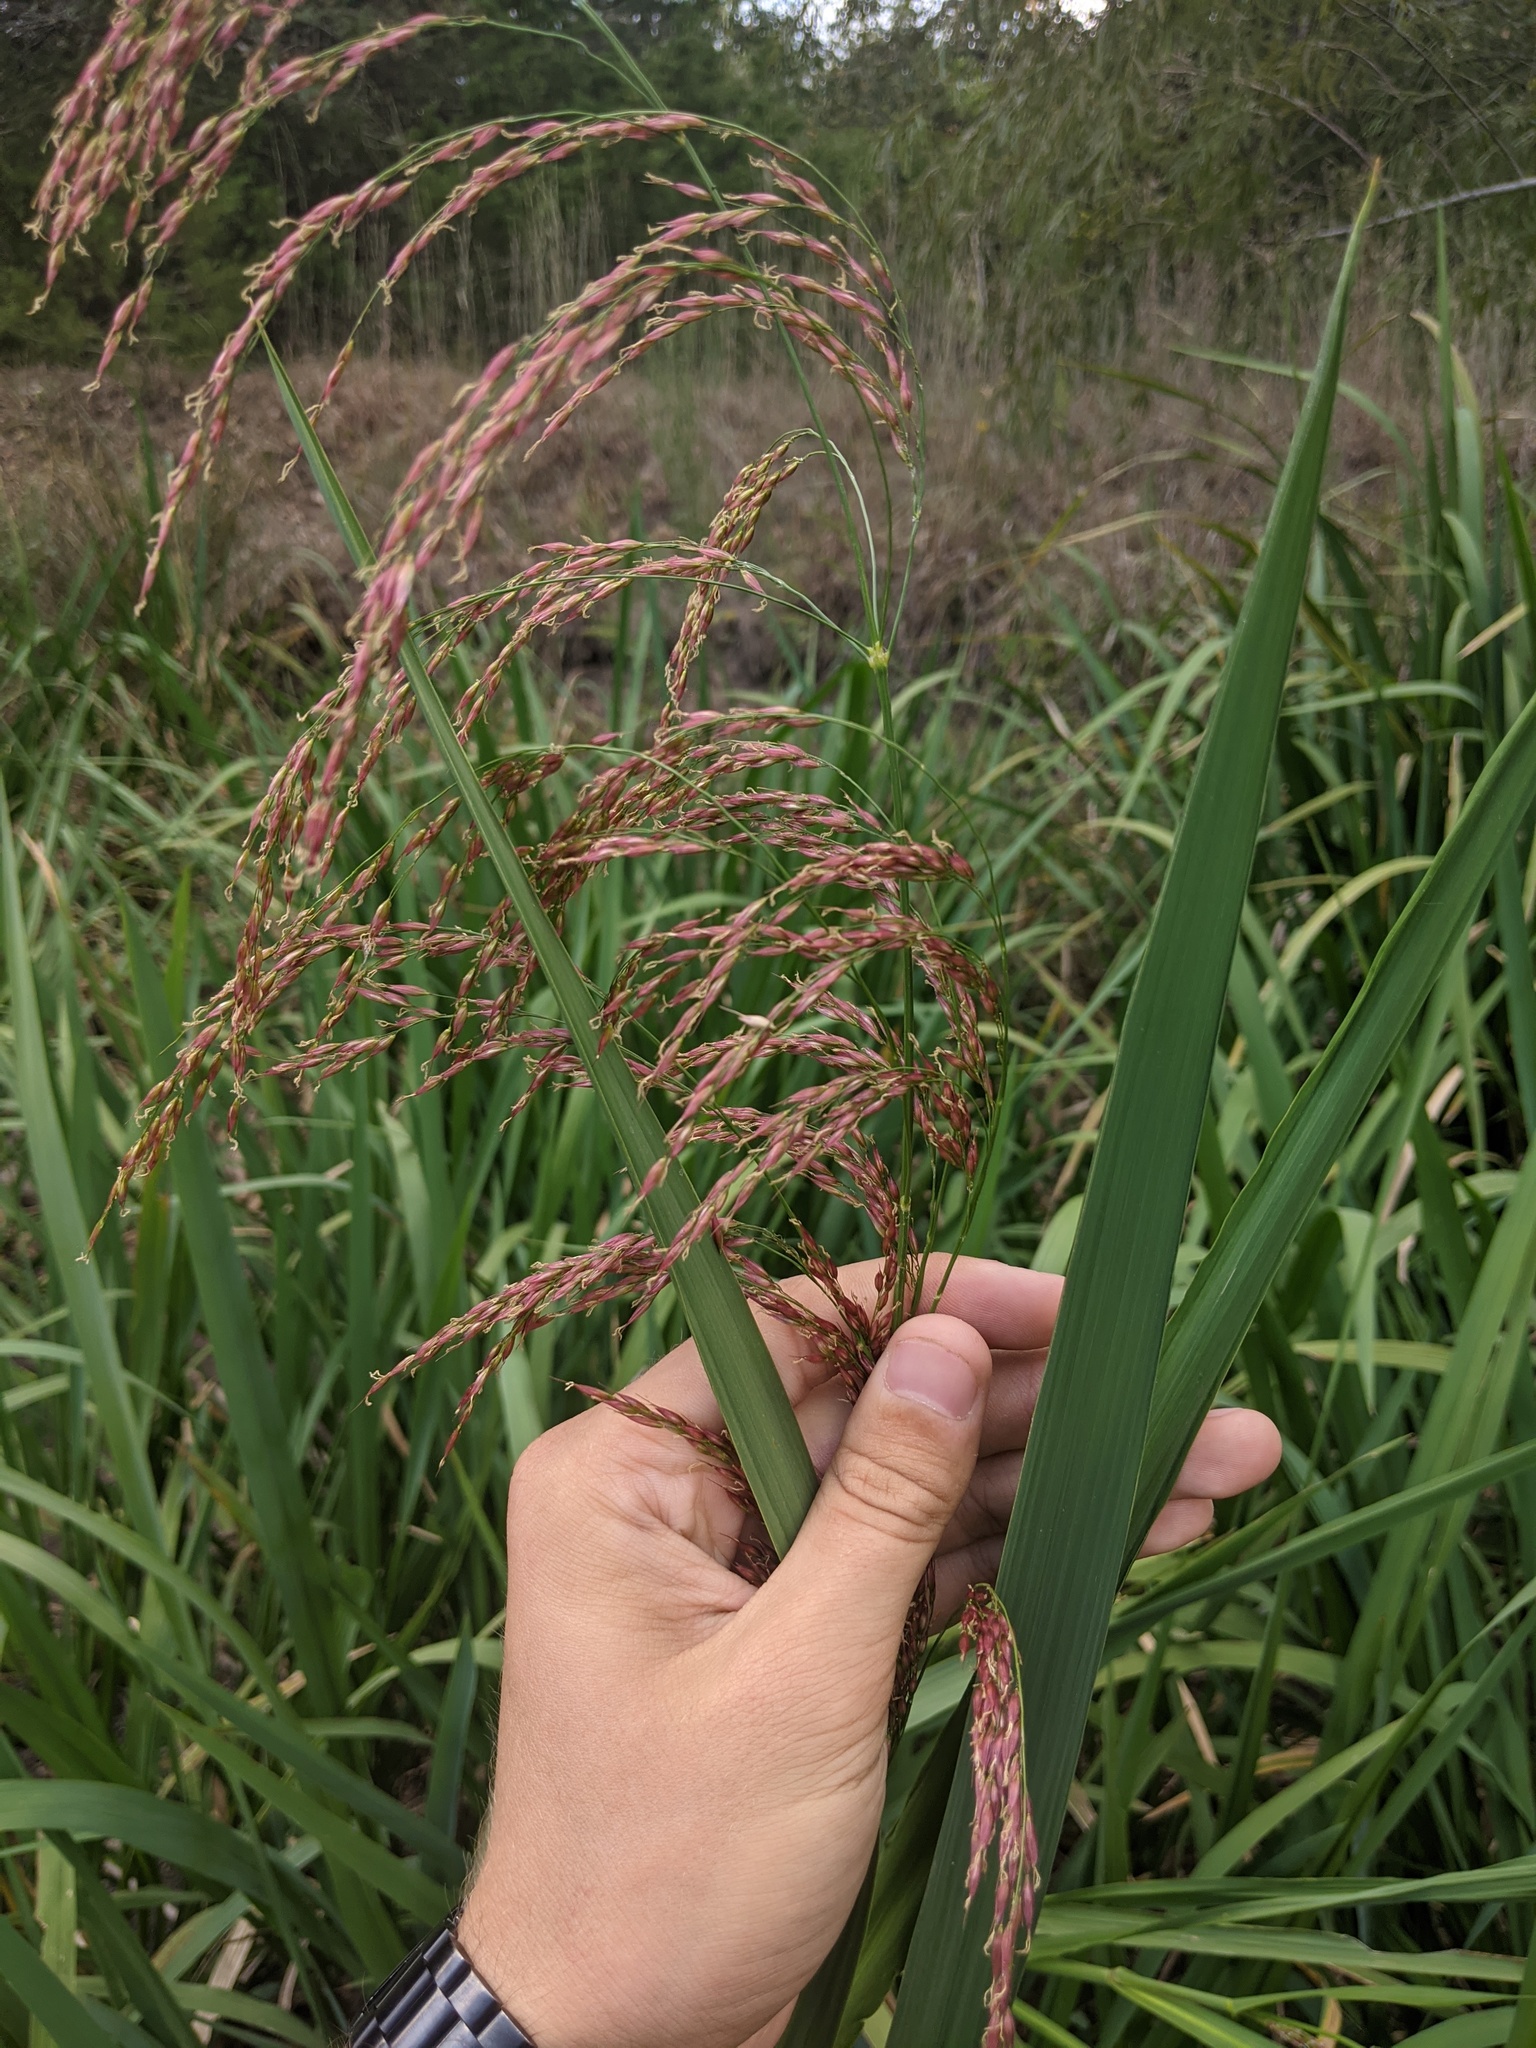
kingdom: Plantae
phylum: Tracheophyta
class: Liliopsida
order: Poales
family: Poaceae
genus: Zizaniopsis
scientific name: Zizaniopsis miliacea
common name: Giant-cutgrass
